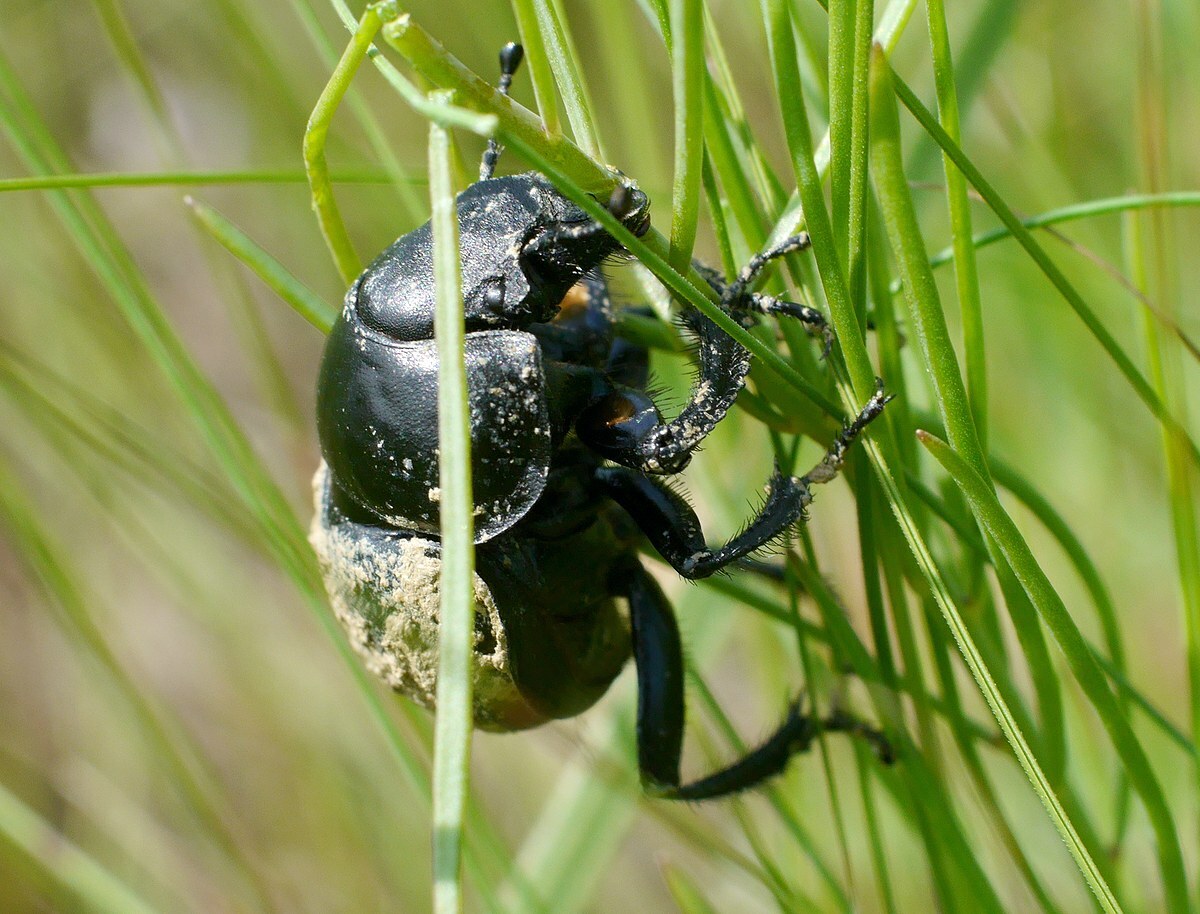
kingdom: Animalia
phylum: Arthropoda
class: Insecta
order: Coleoptera
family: Geotrupidae
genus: Lethrus
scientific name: Lethrus apterus
